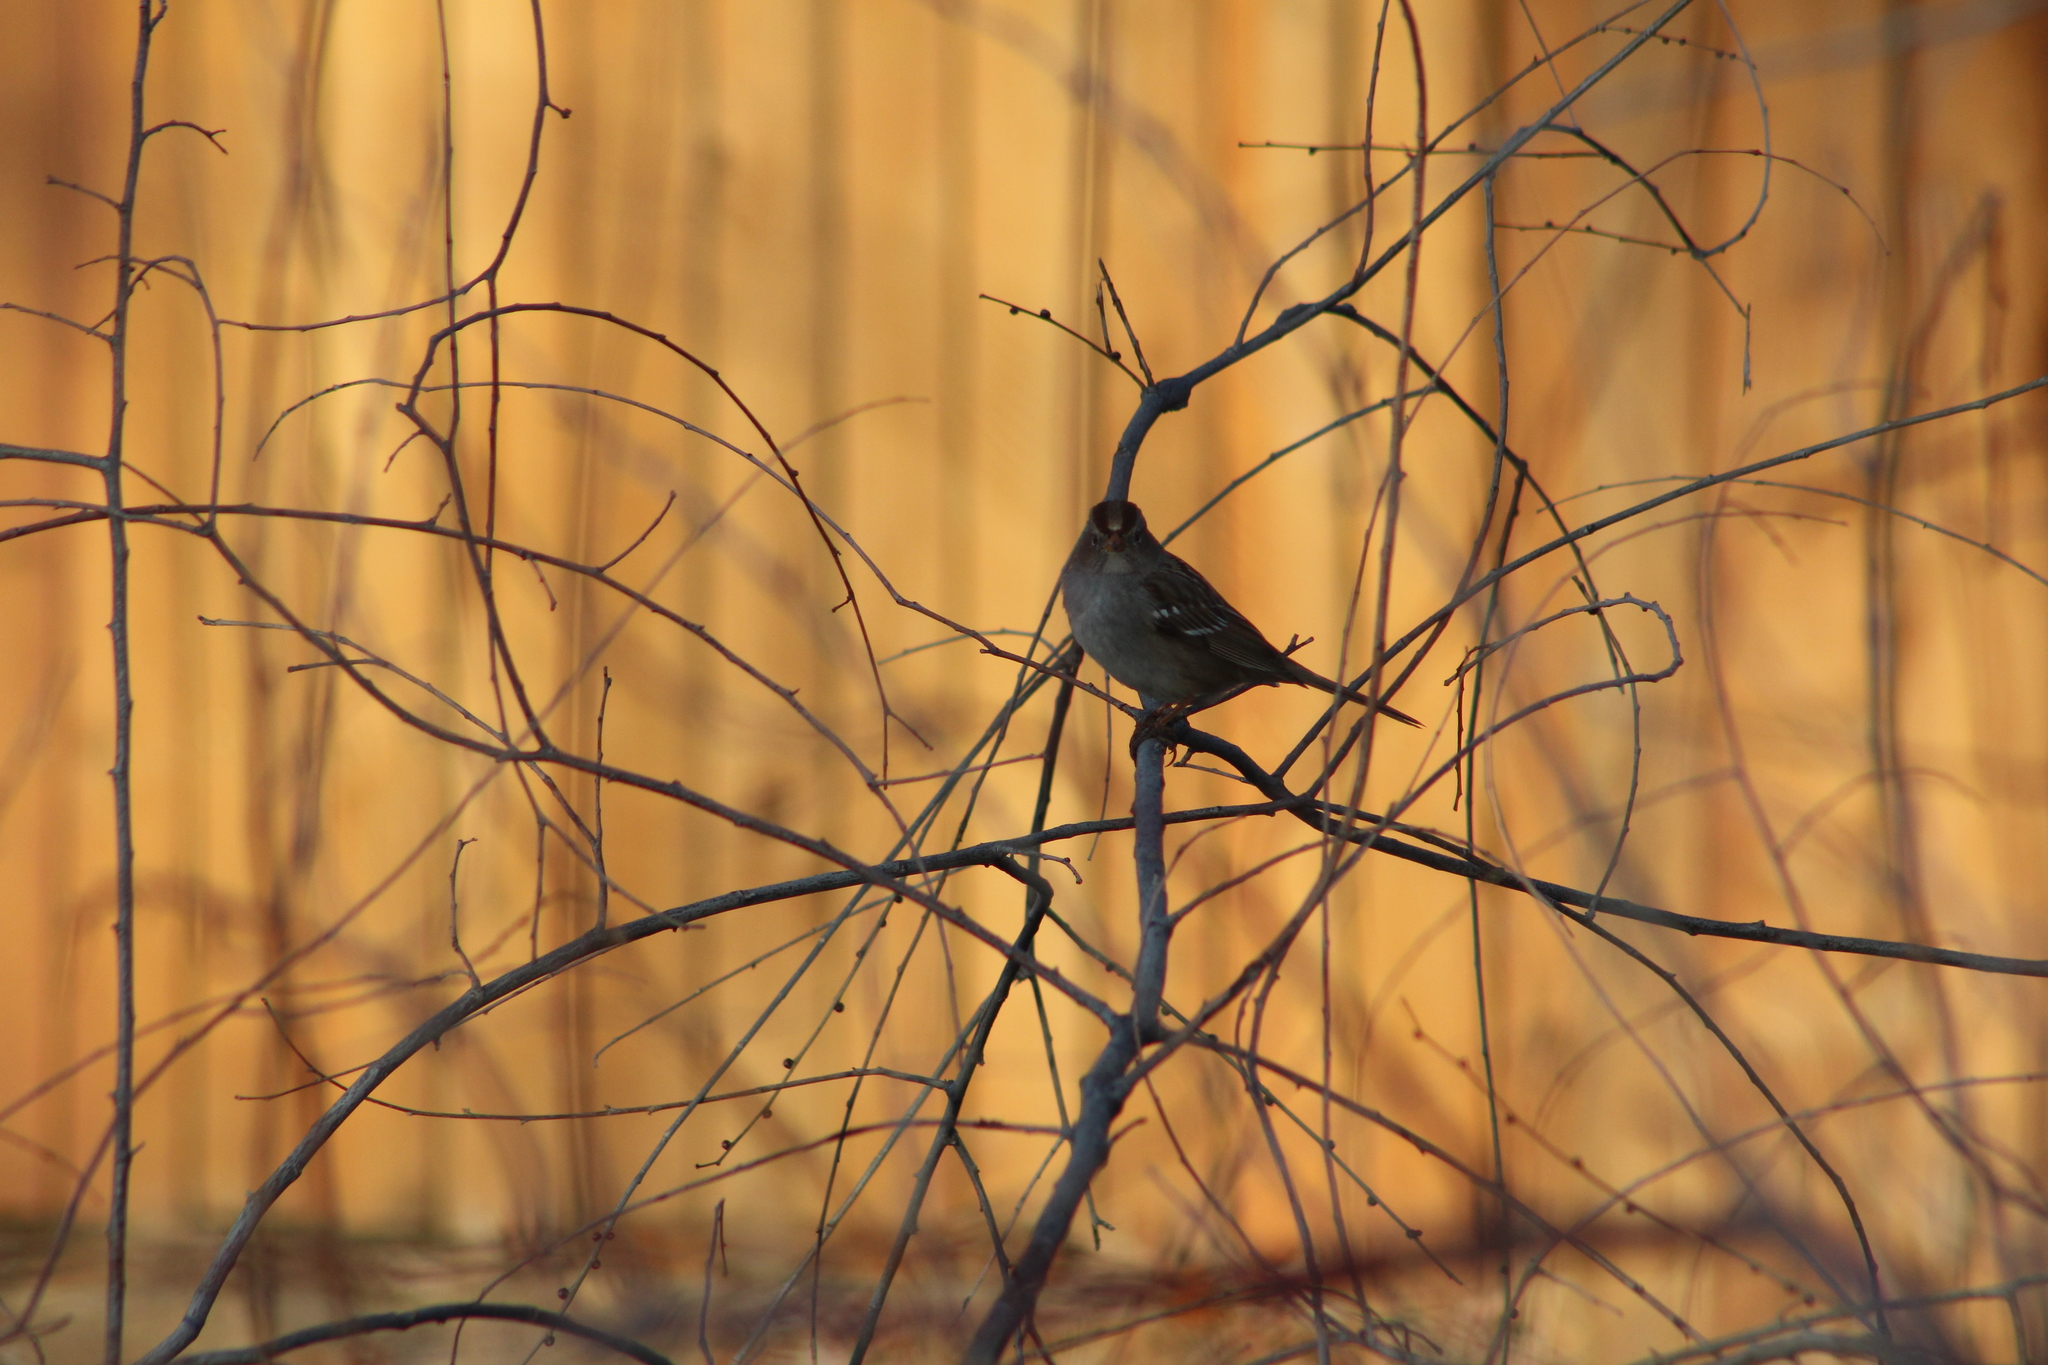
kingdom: Animalia
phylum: Chordata
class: Aves
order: Passeriformes
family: Passerellidae
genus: Zonotrichia
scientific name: Zonotrichia leucophrys
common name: White-crowned sparrow
